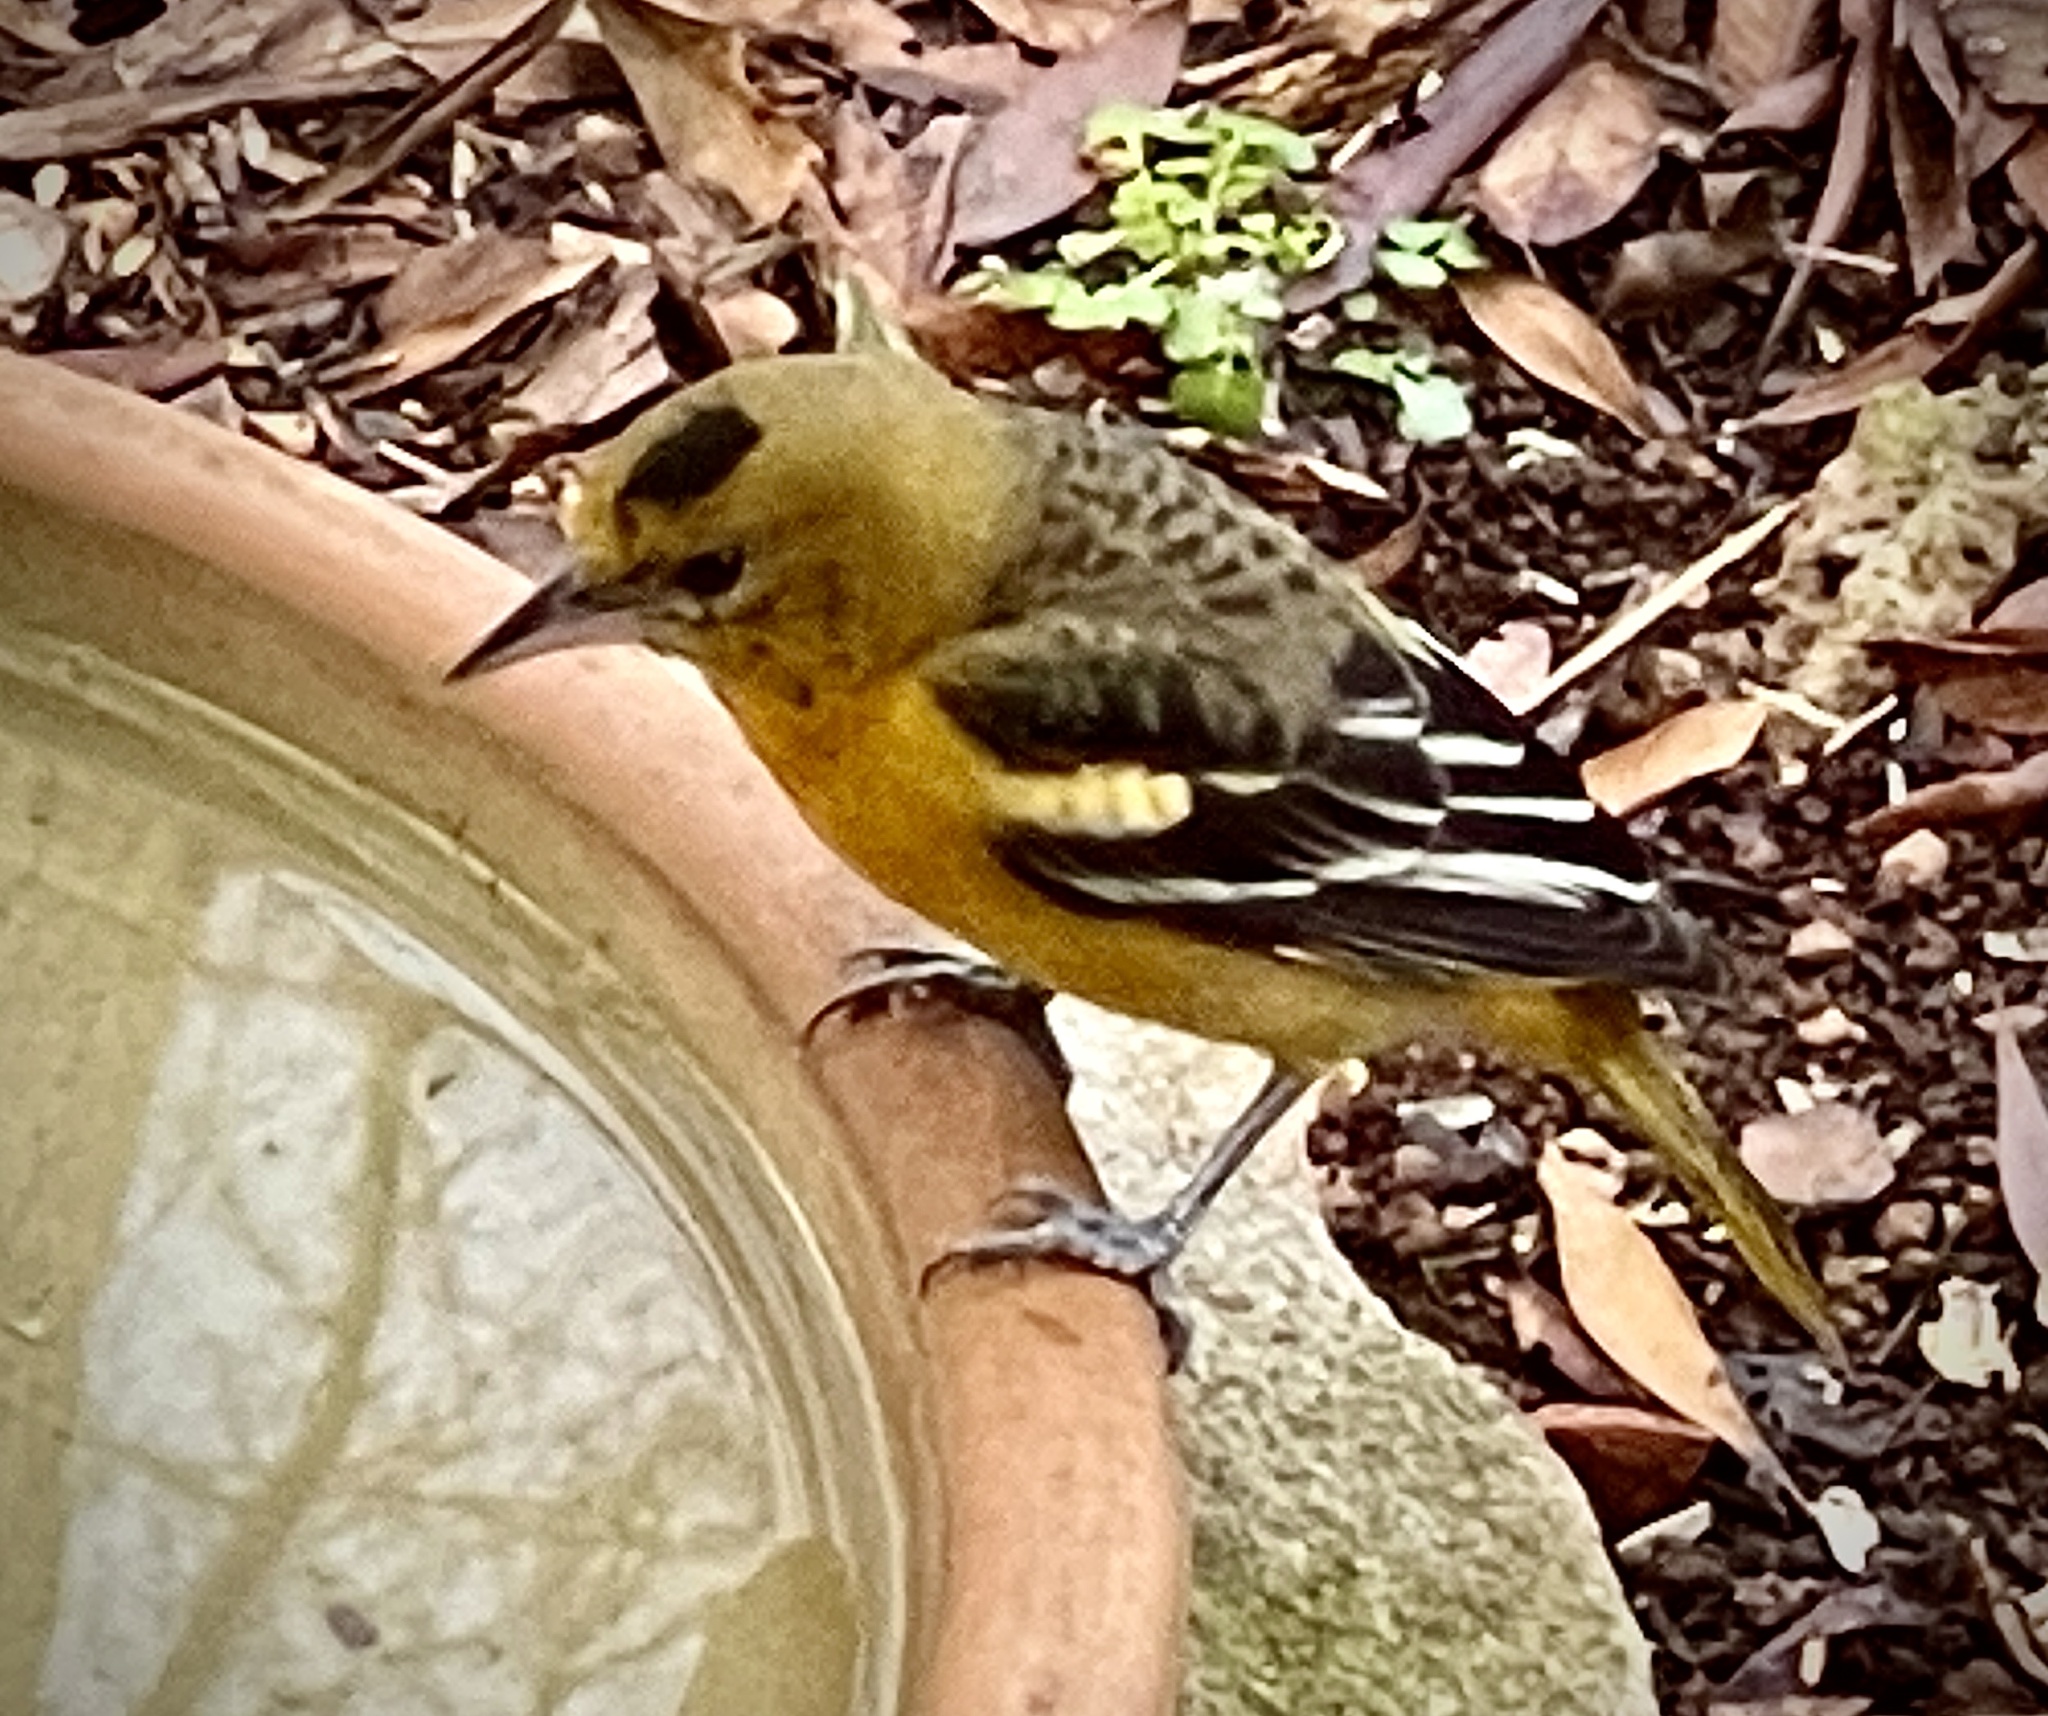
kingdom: Animalia
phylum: Chordata
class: Aves
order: Passeriformes
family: Icteridae
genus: Icterus
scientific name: Icterus galbula
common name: Baltimore oriole
